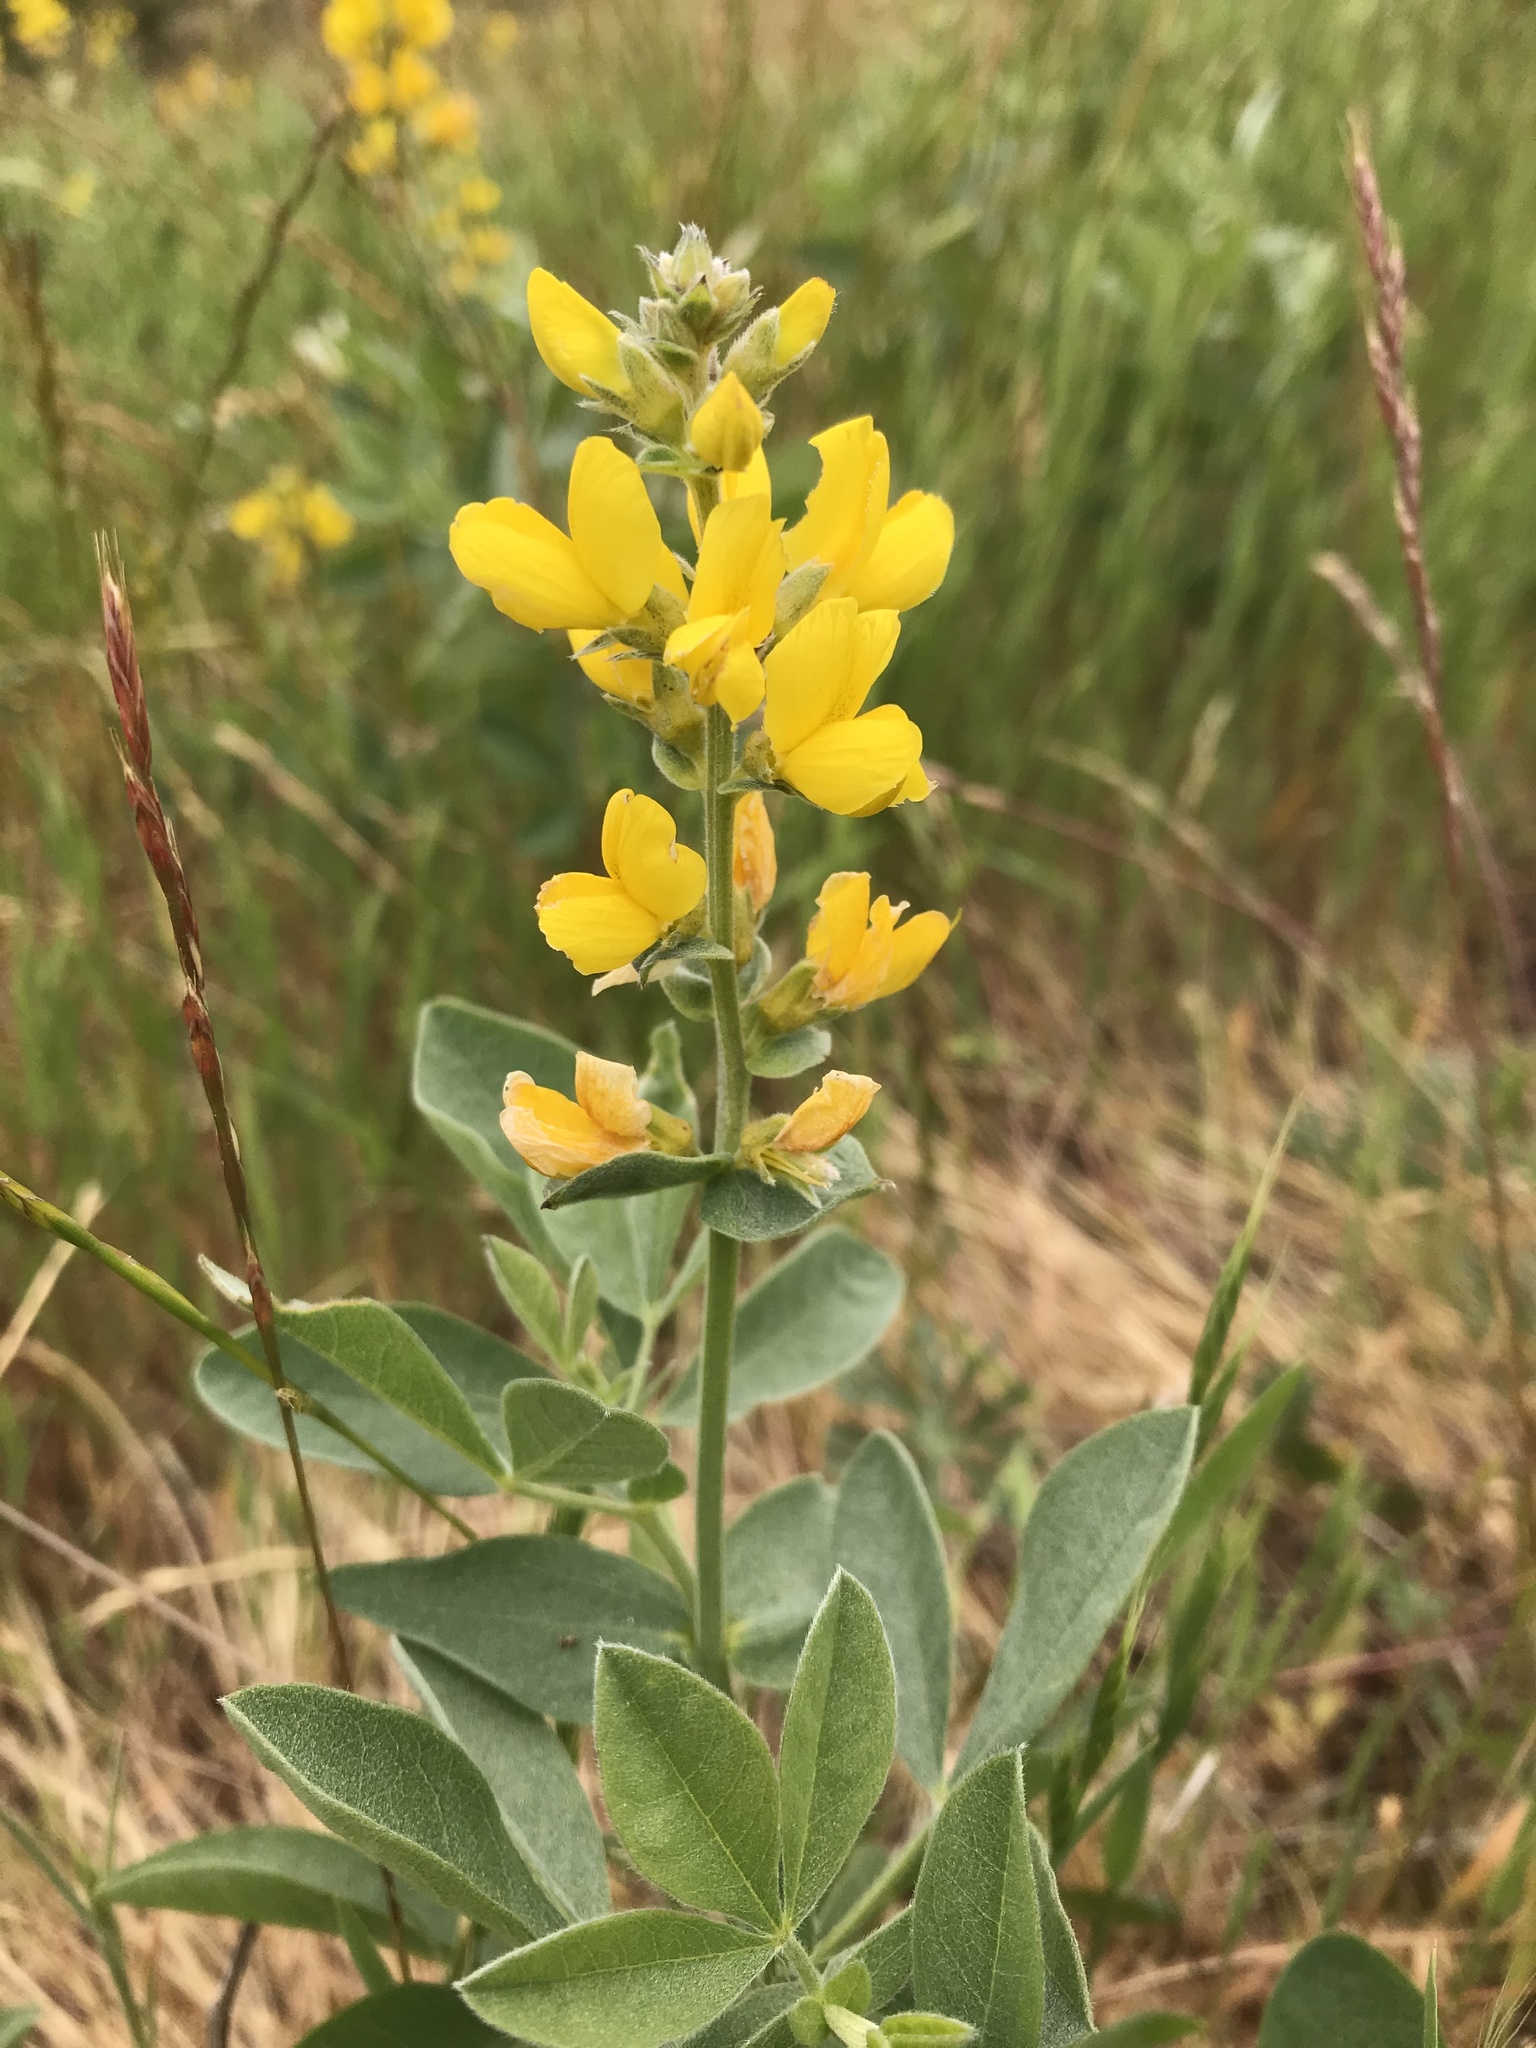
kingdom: Plantae
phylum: Tracheophyta
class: Magnoliopsida
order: Fabales
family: Fabaceae
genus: Thermopsis
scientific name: Thermopsis californica
